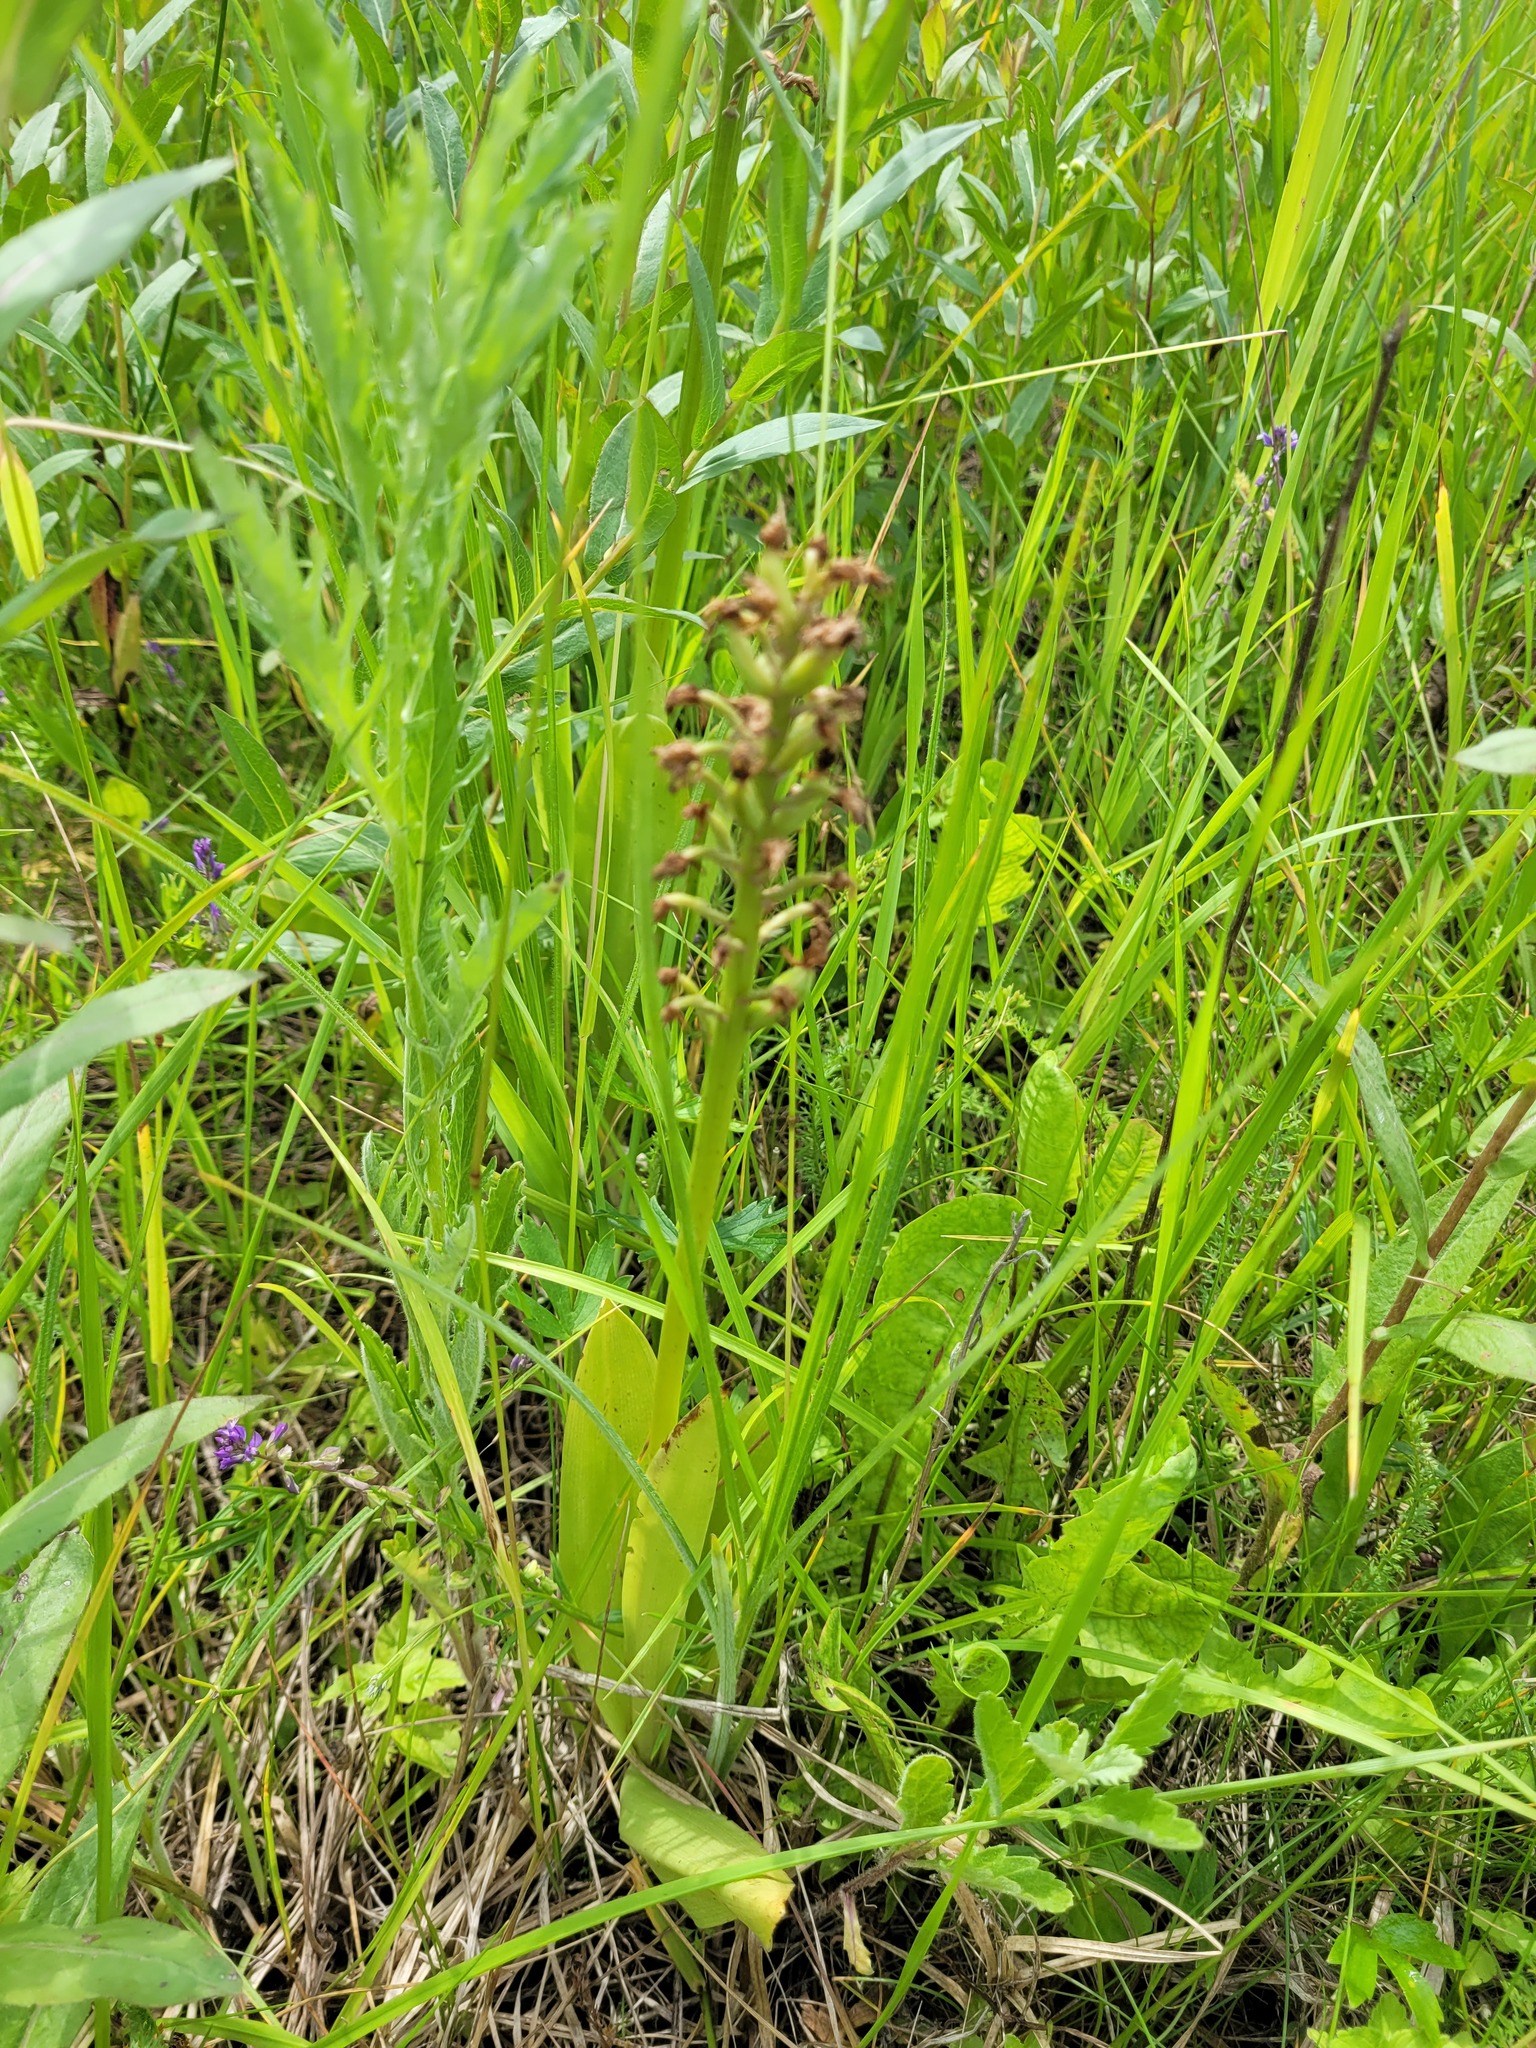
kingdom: Plantae
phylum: Tracheophyta
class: Liliopsida
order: Asparagales
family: Orchidaceae
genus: Orchis
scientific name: Orchis militaris
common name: Military orchid
